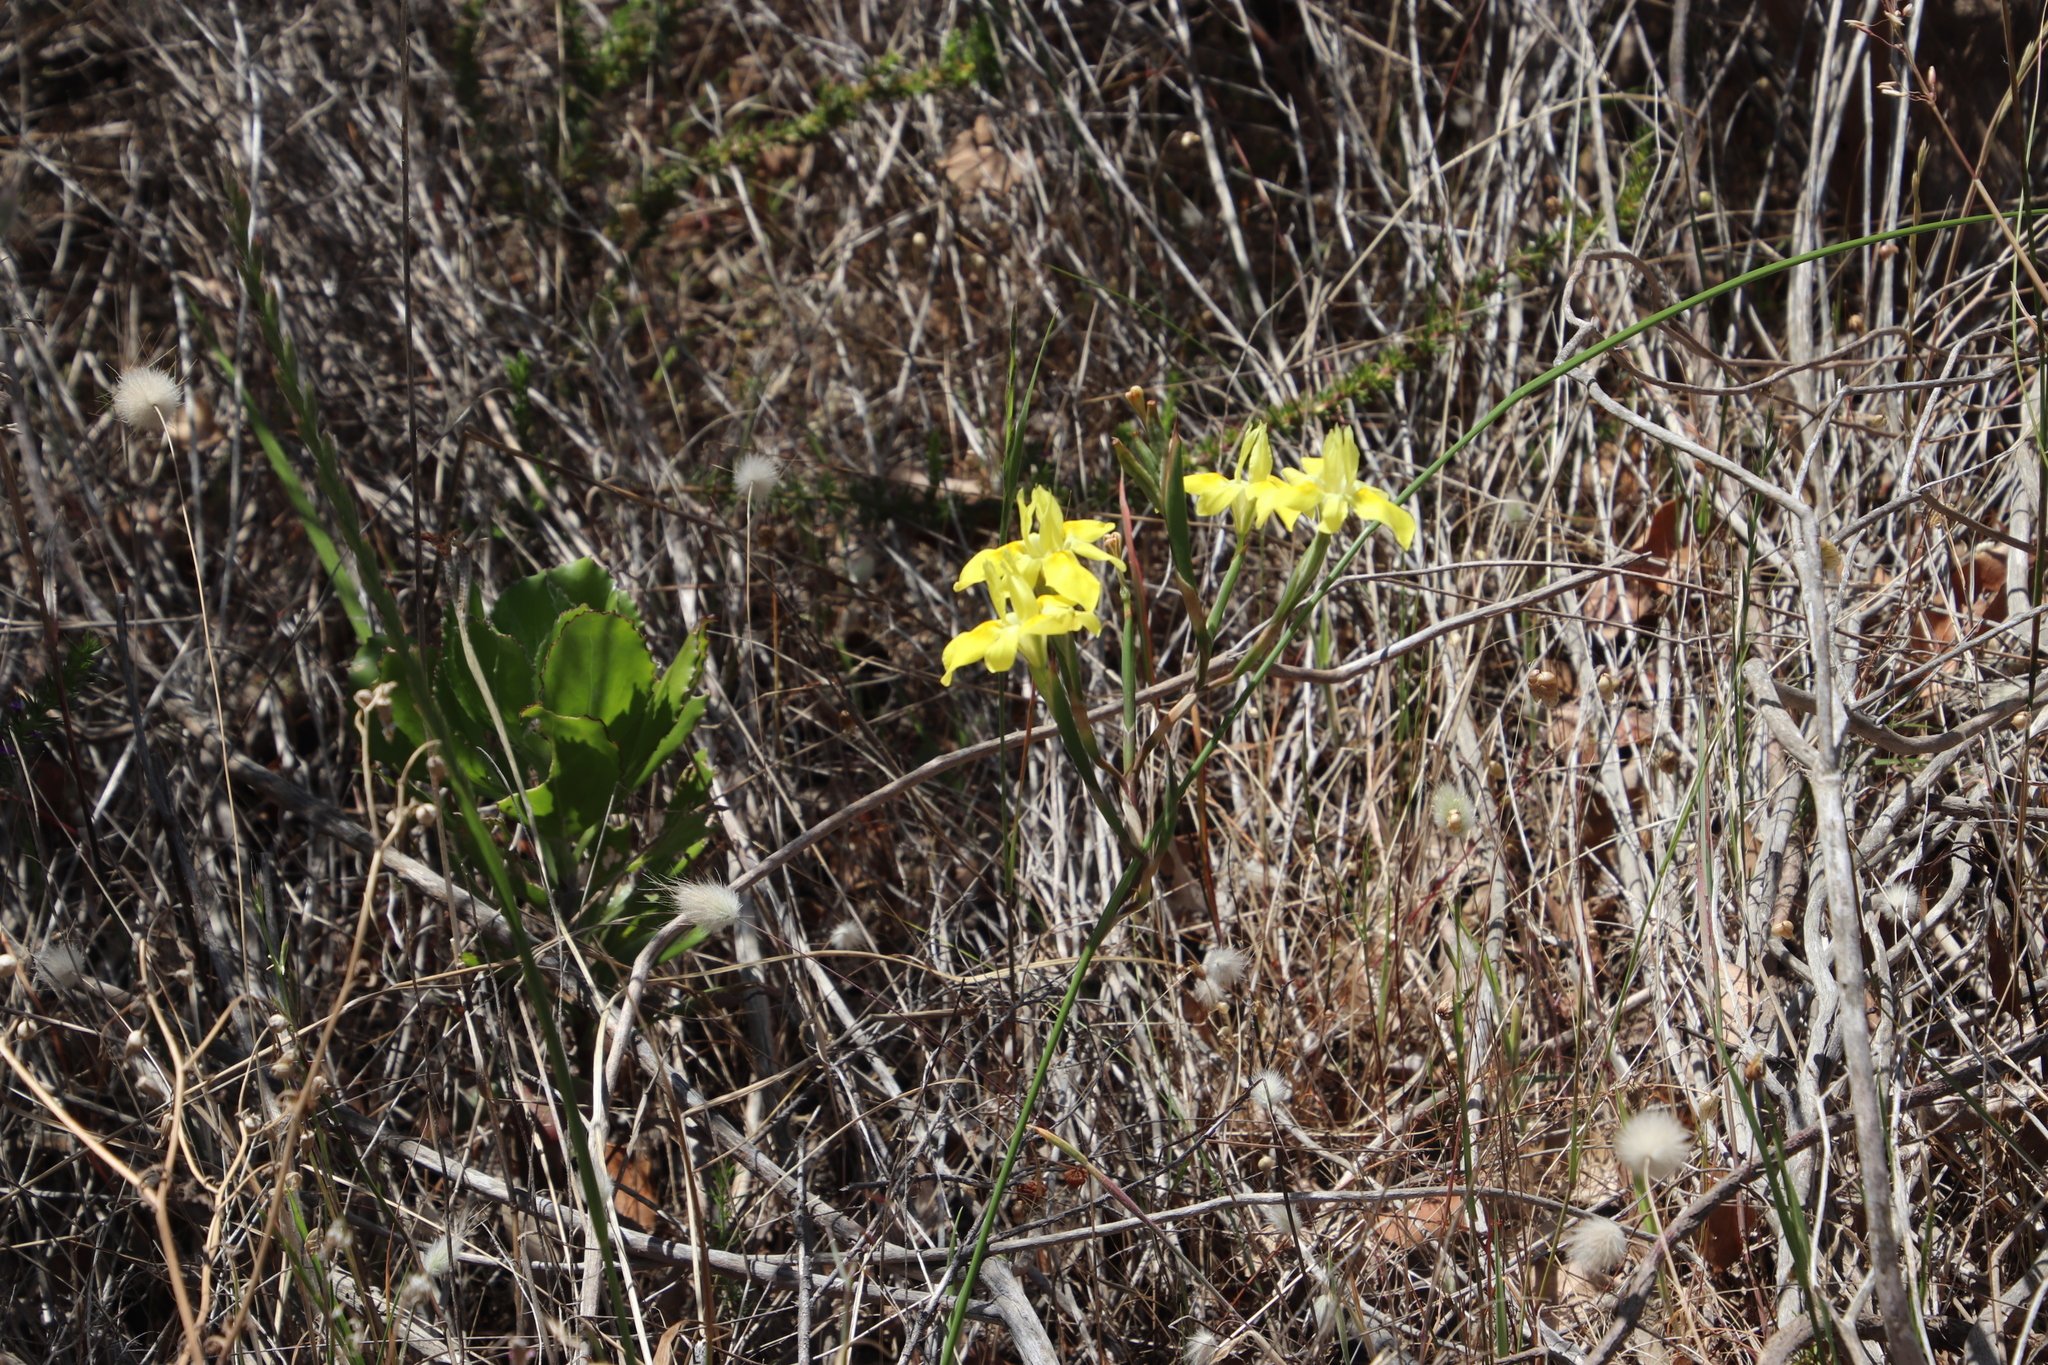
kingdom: Plantae
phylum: Tracheophyta
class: Liliopsida
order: Asparagales
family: Iridaceae
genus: Moraea
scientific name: Moraea fugax
